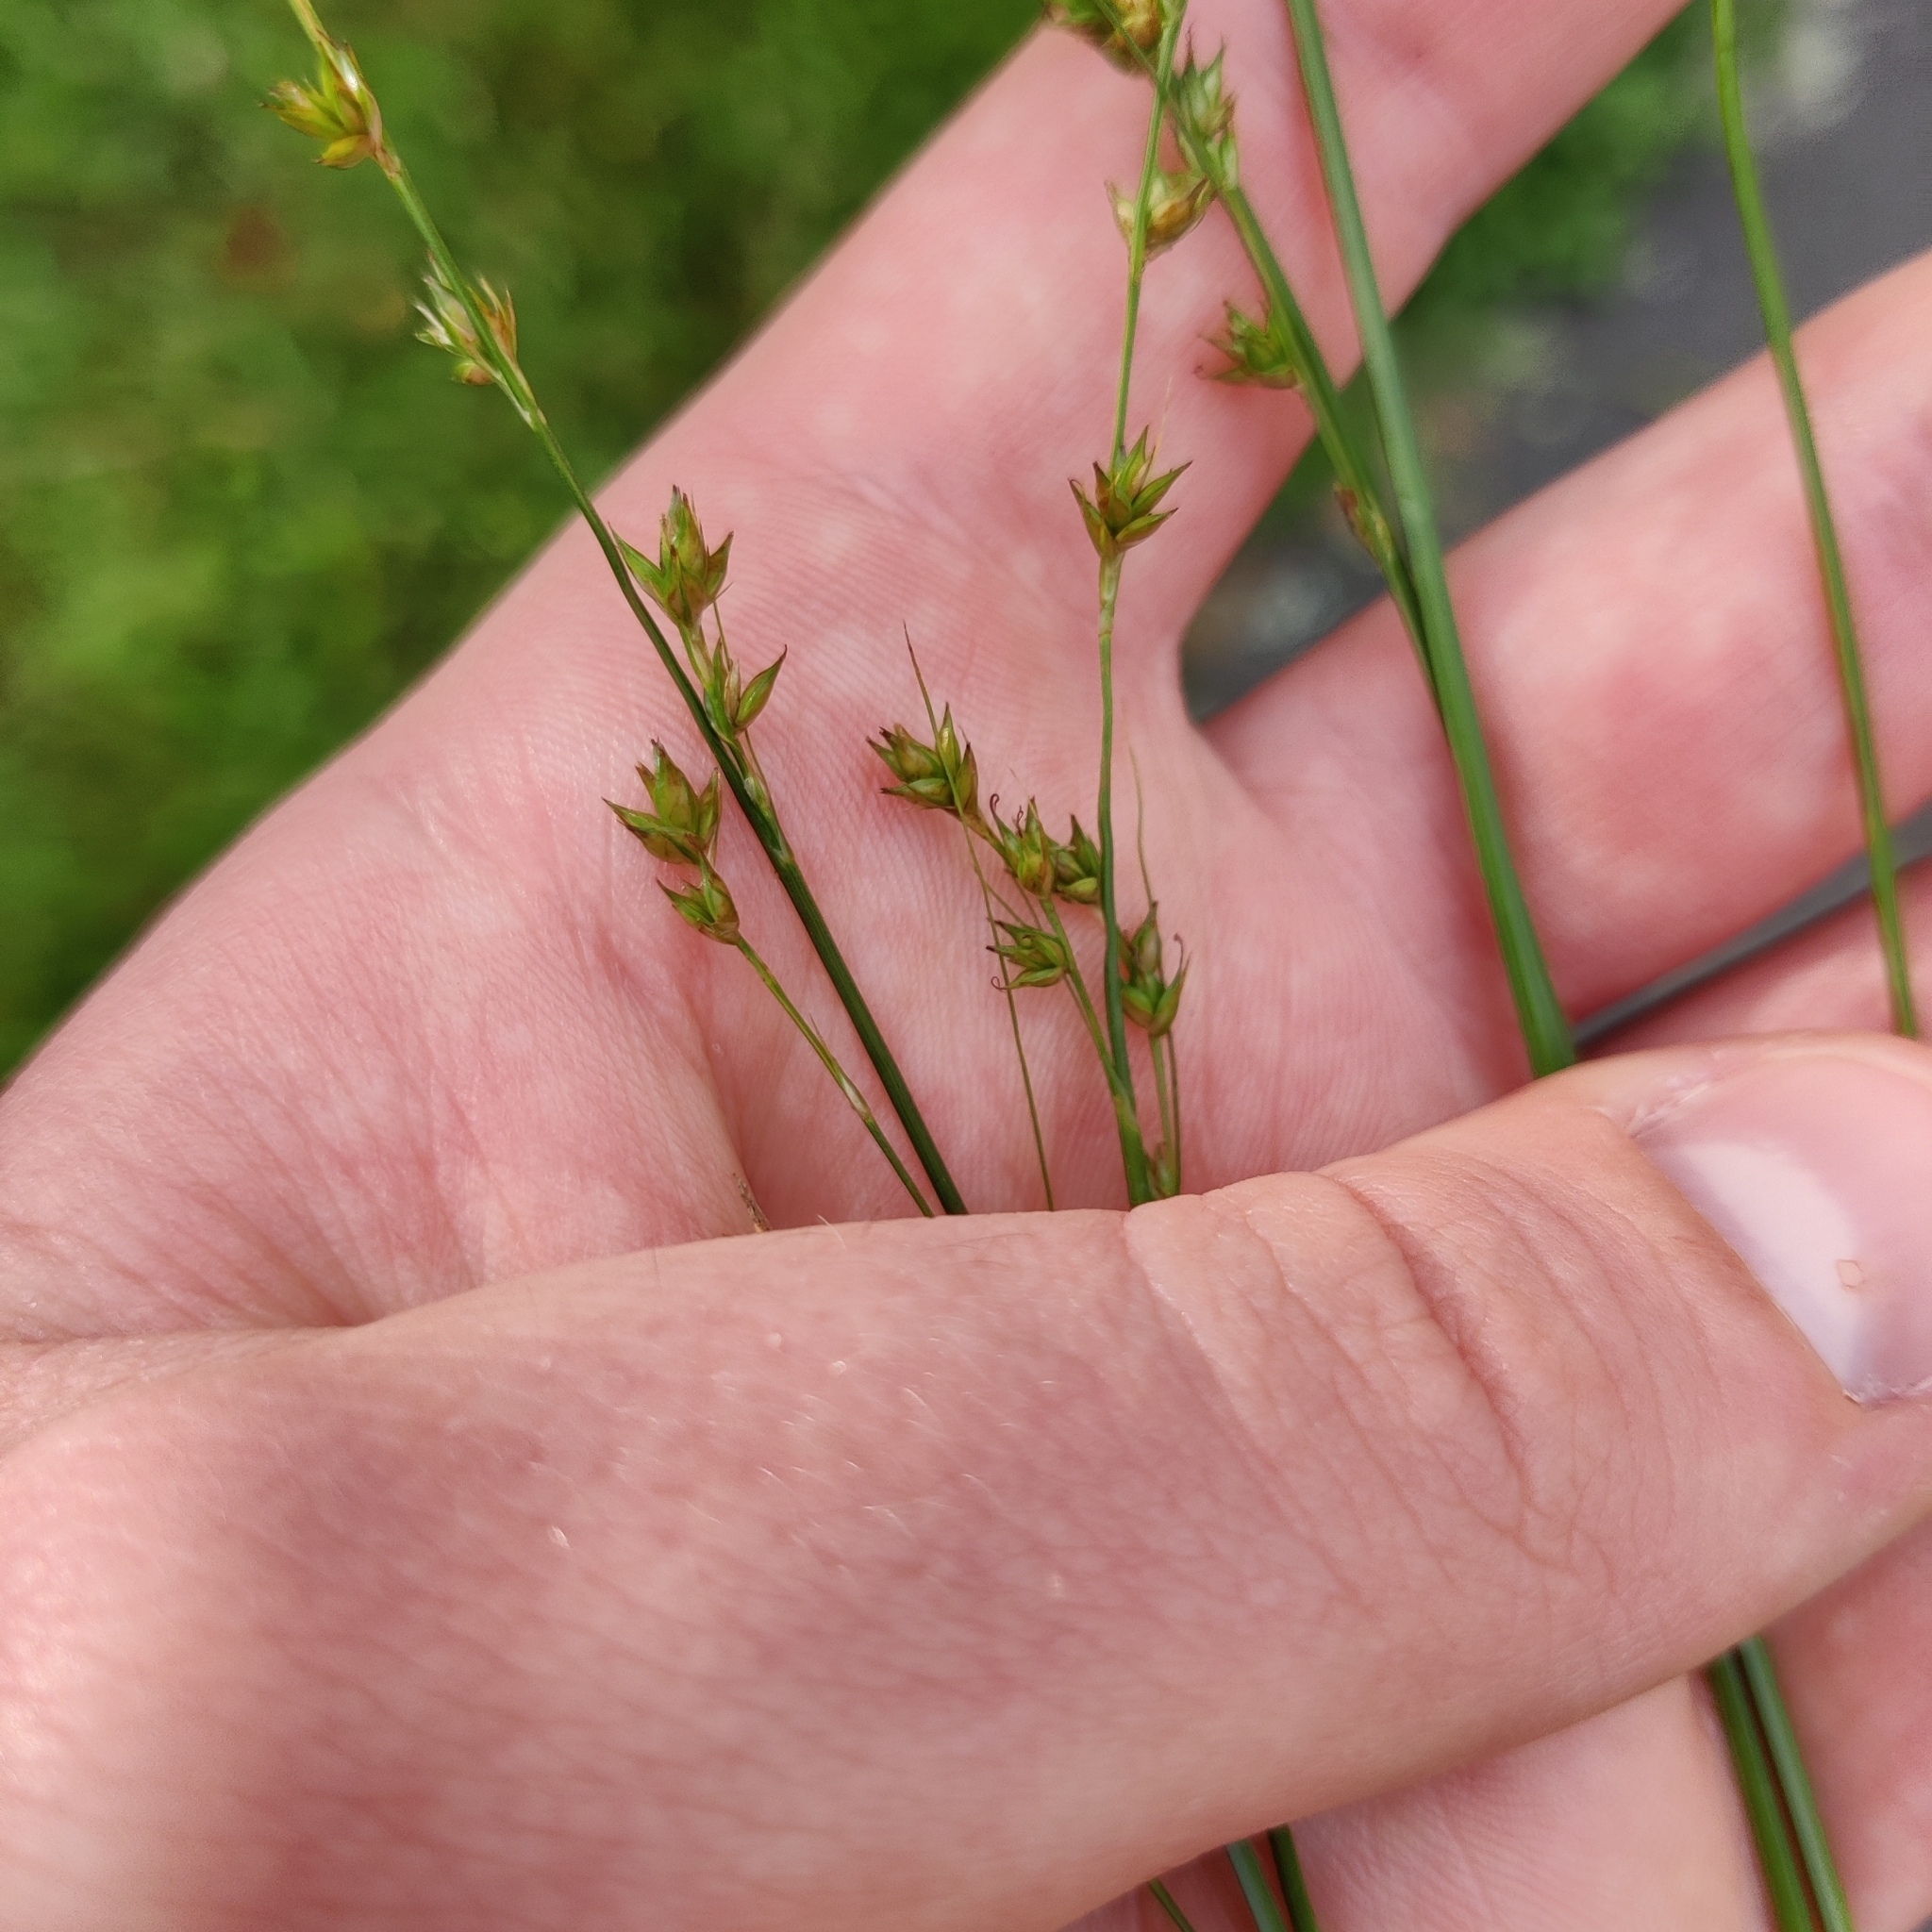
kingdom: Plantae
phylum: Tracheophyta
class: Liliopsida
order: Poales
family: Cyperaceae
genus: Carex
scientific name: Carex divulsa
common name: Grassland sedge
